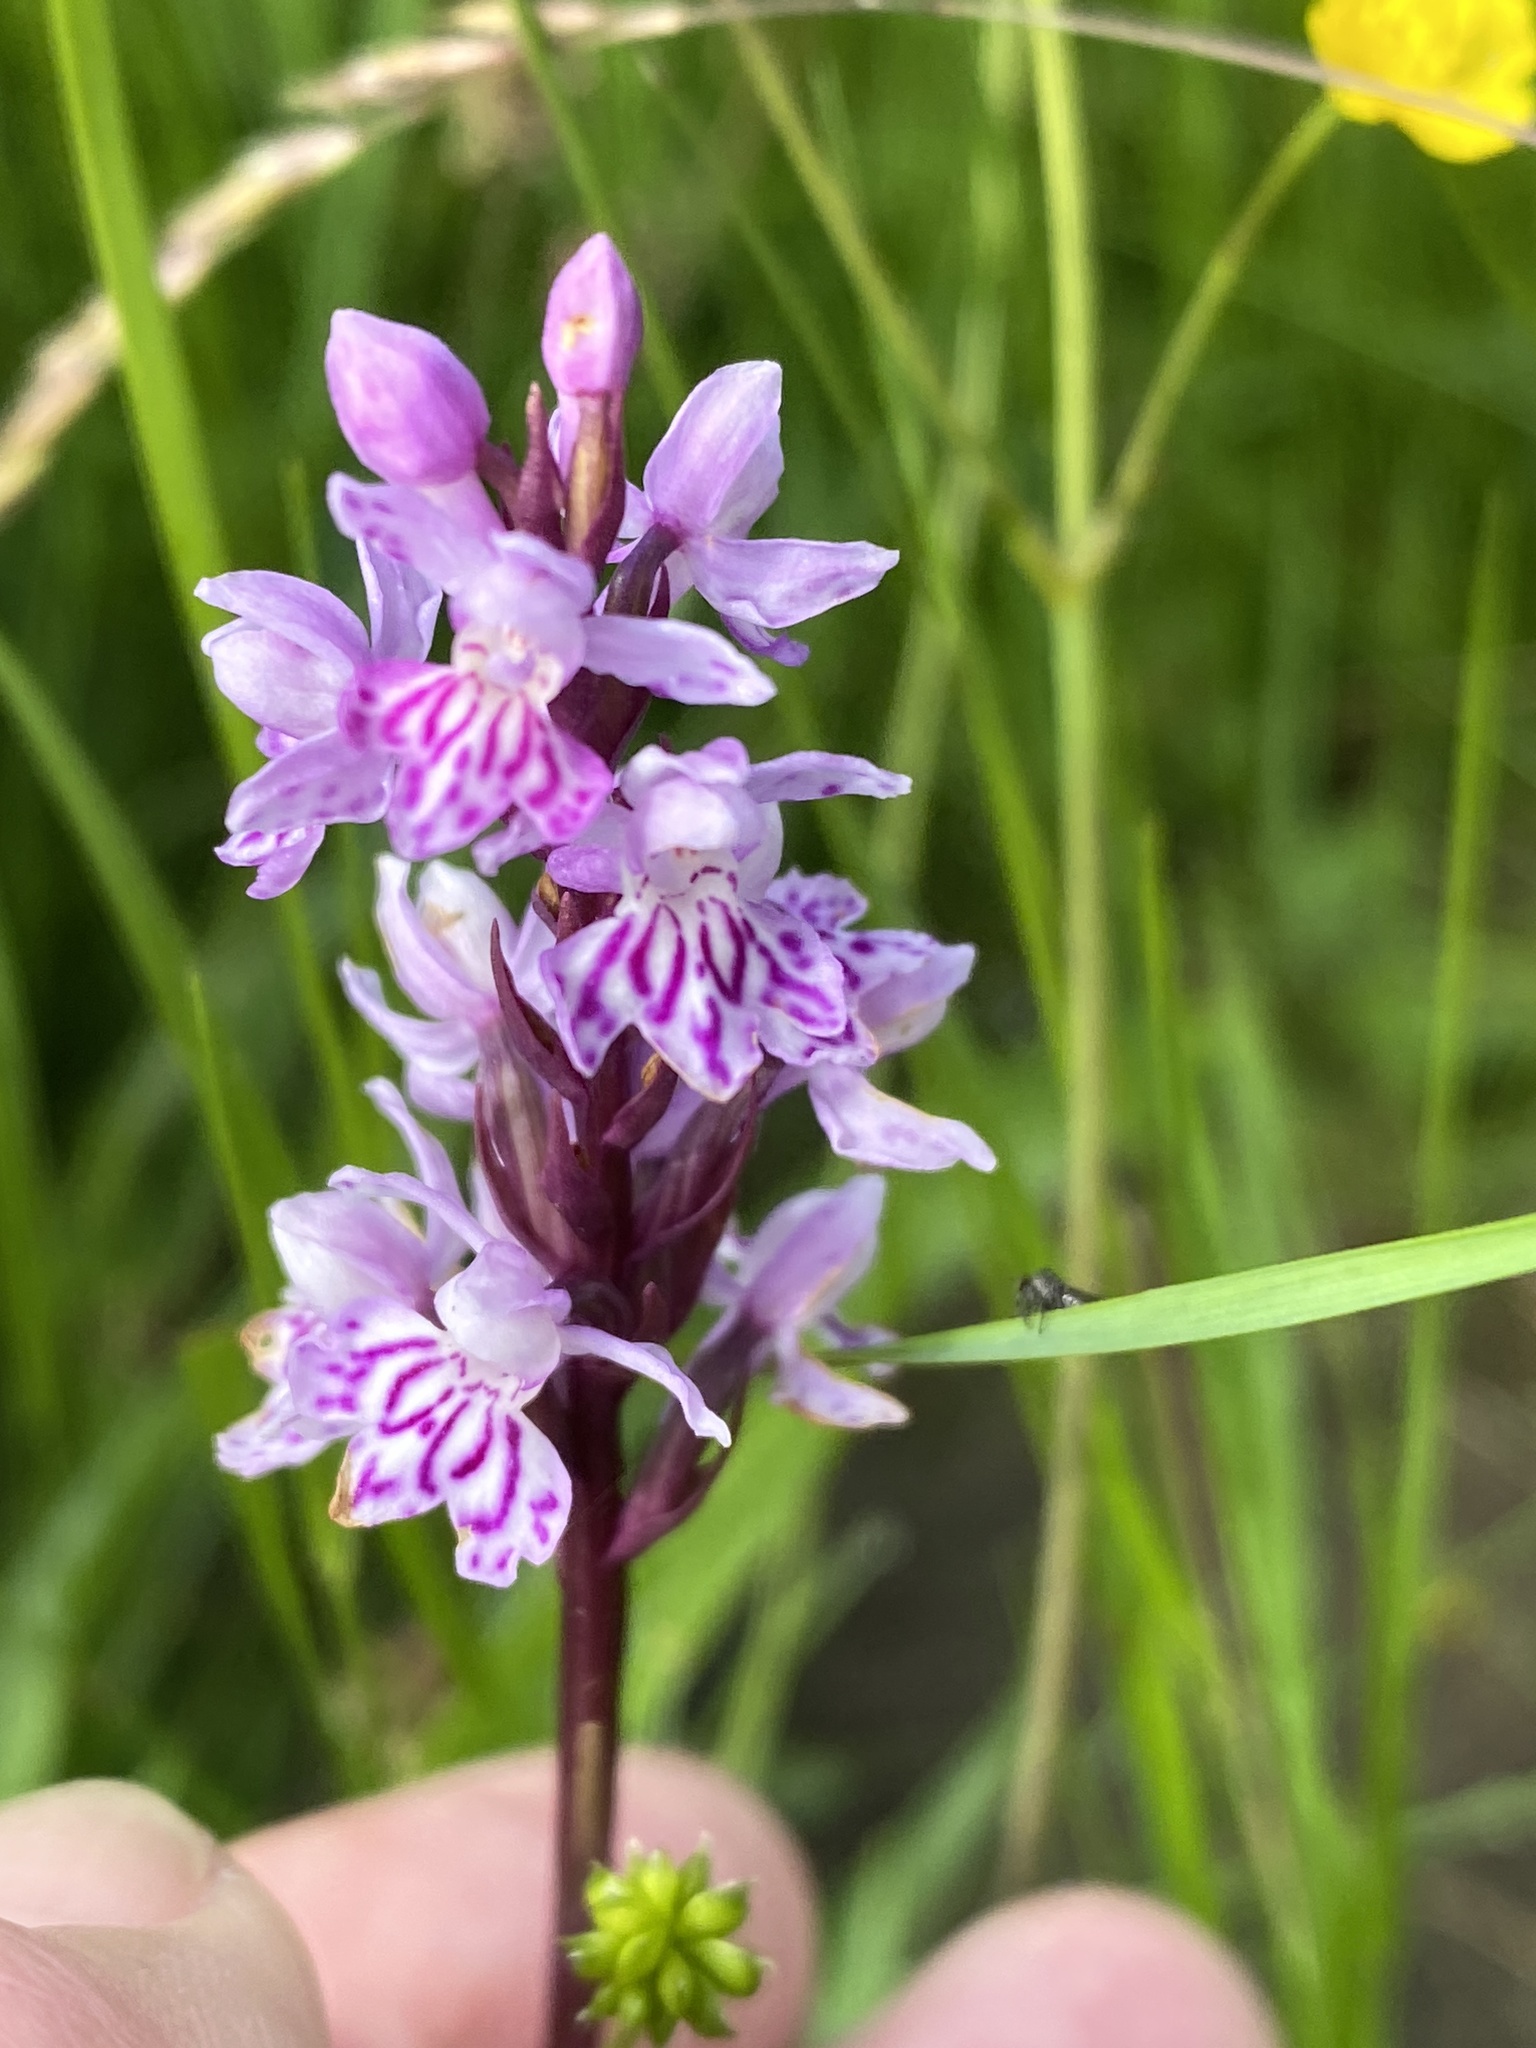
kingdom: Plantae
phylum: Tracheophyta
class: Liliopsida
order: Asparagales
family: Orchidaceae
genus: Dactylorhiza
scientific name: Dactylorhiza maculata
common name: Heath spotted-orchid
